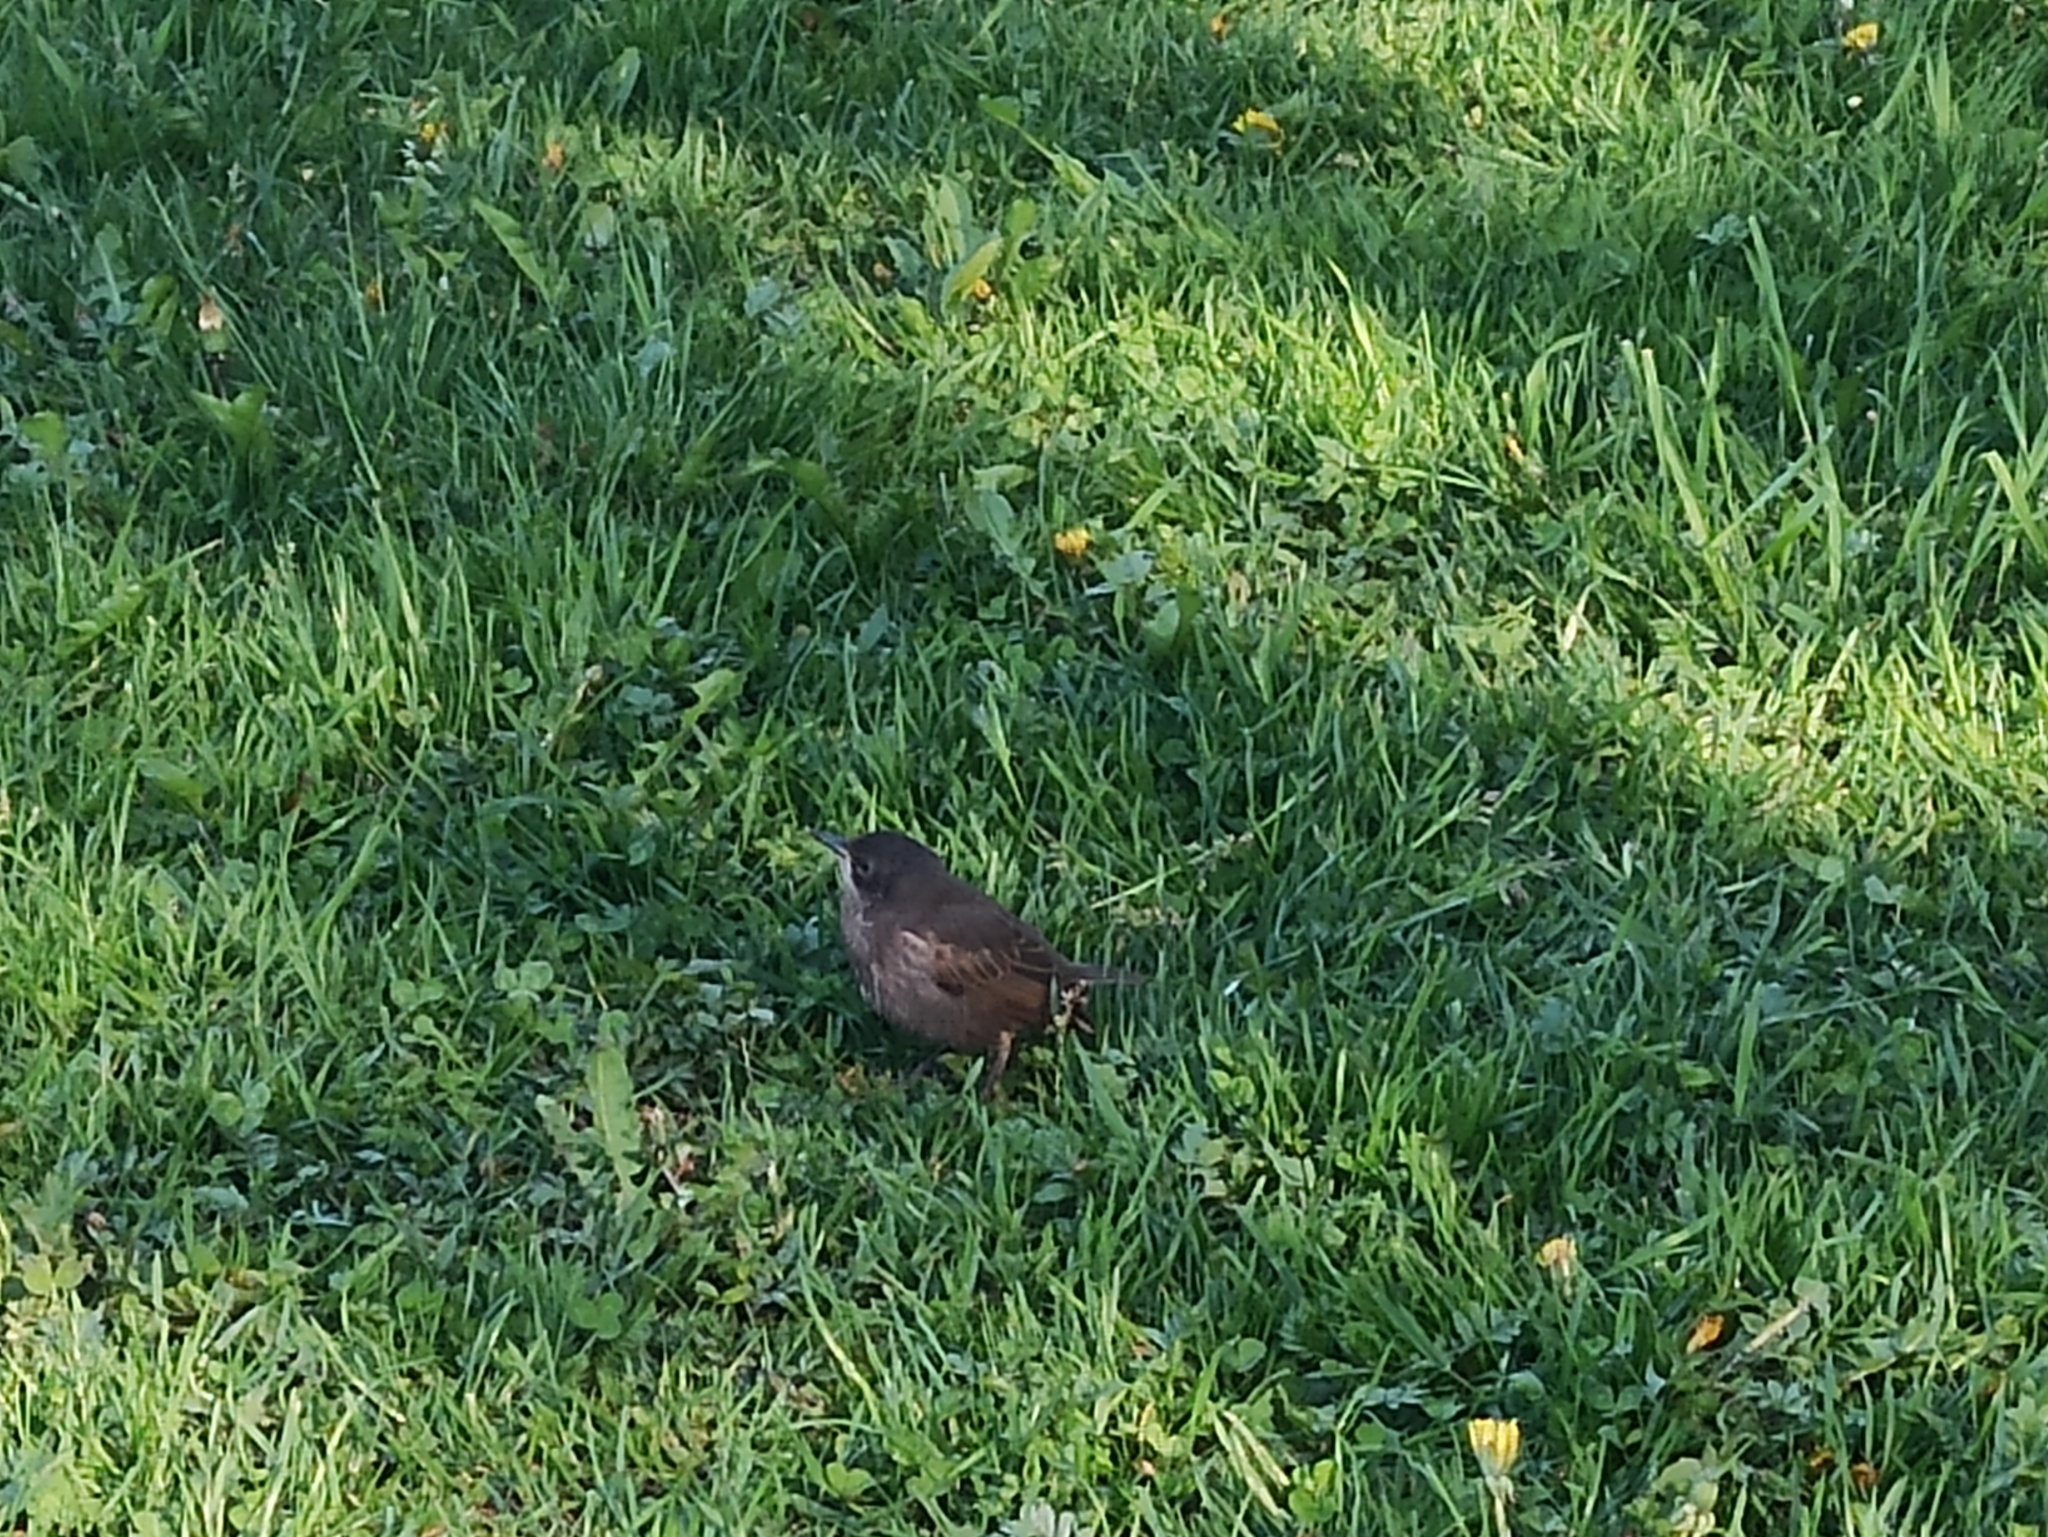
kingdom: Animalia
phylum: Chordata
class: Aves
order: Passeriformes
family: Sturnidae
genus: Sturnus
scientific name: Sturnus vulgaris
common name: Common starling
